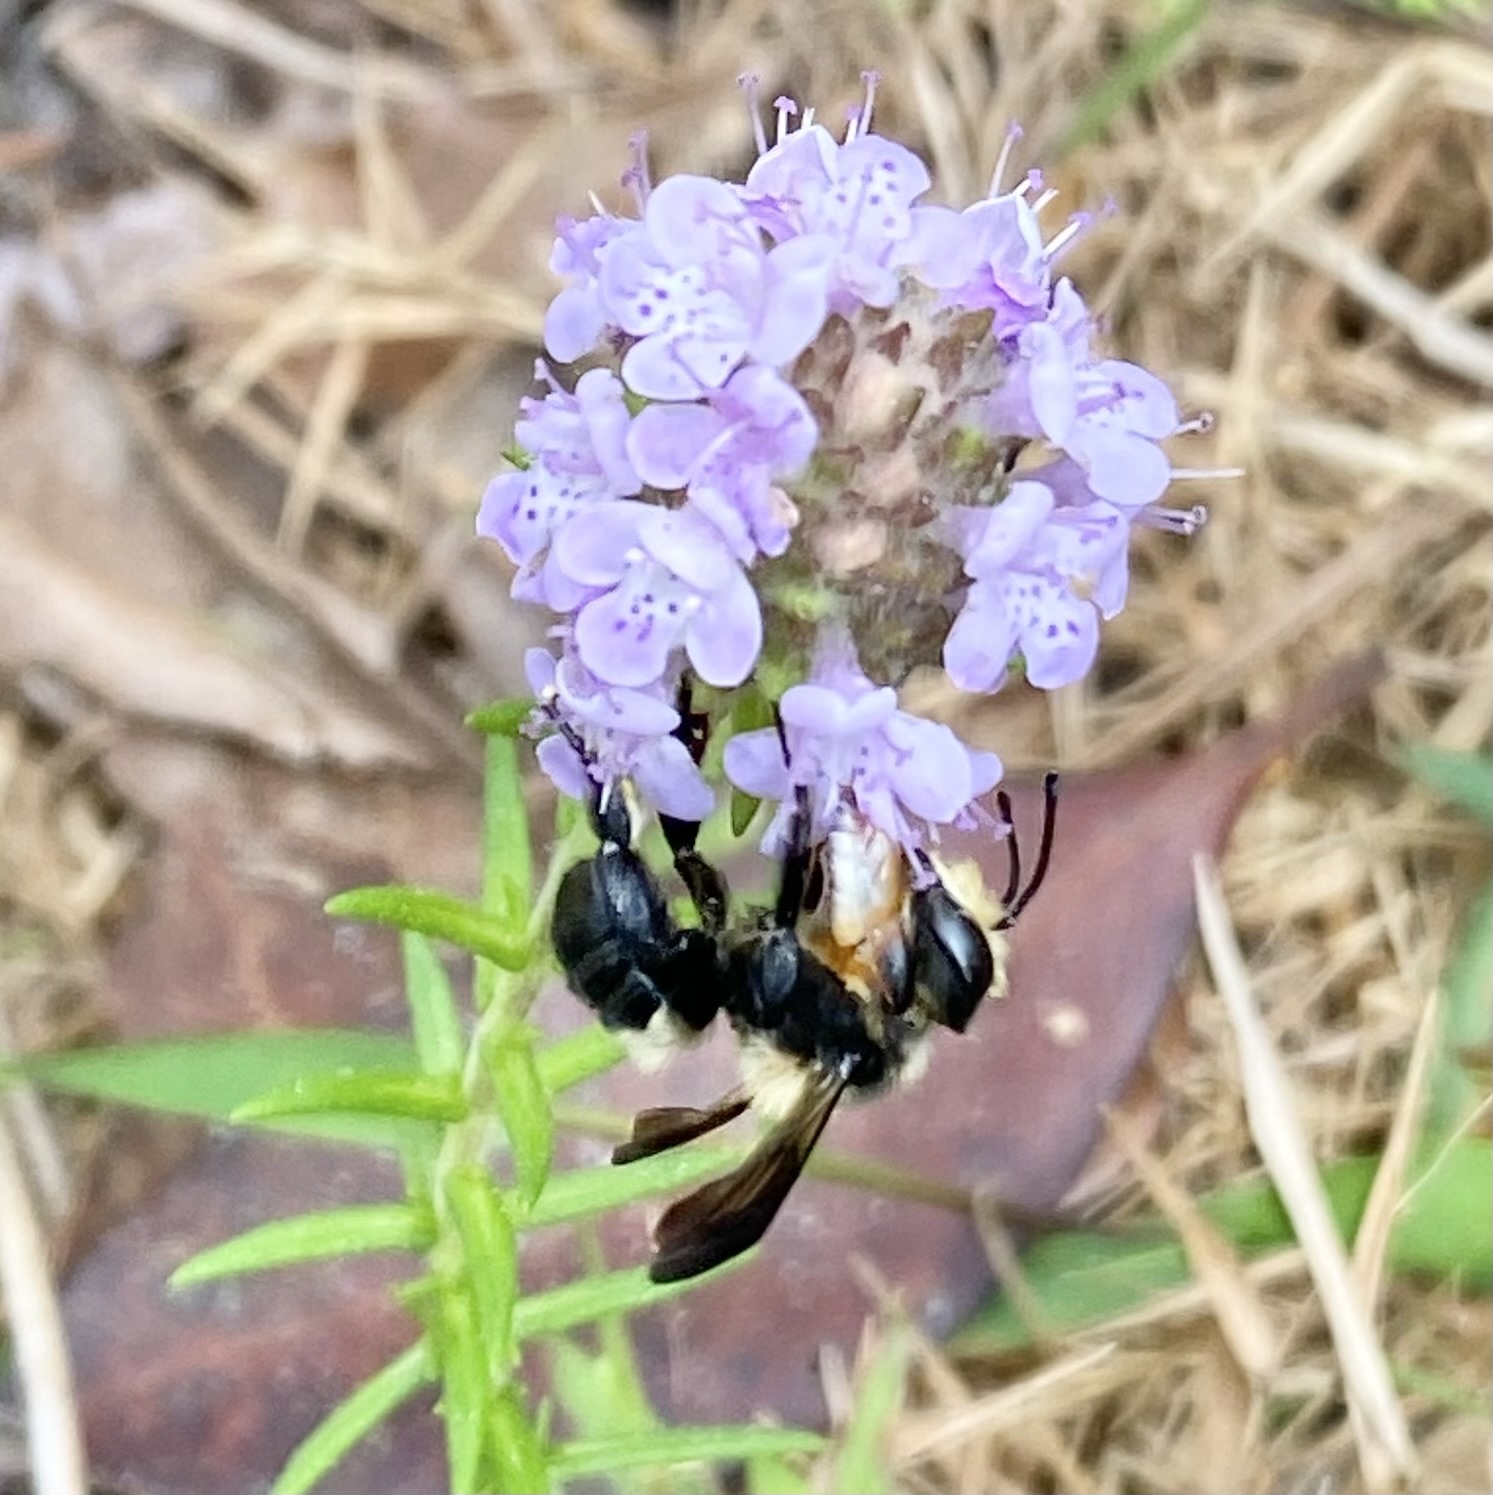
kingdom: Animalia
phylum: Arthropoda
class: Insecta
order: Hymenoptera
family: Megachilidae
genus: Megachile
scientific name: Megachile xylocopoides
